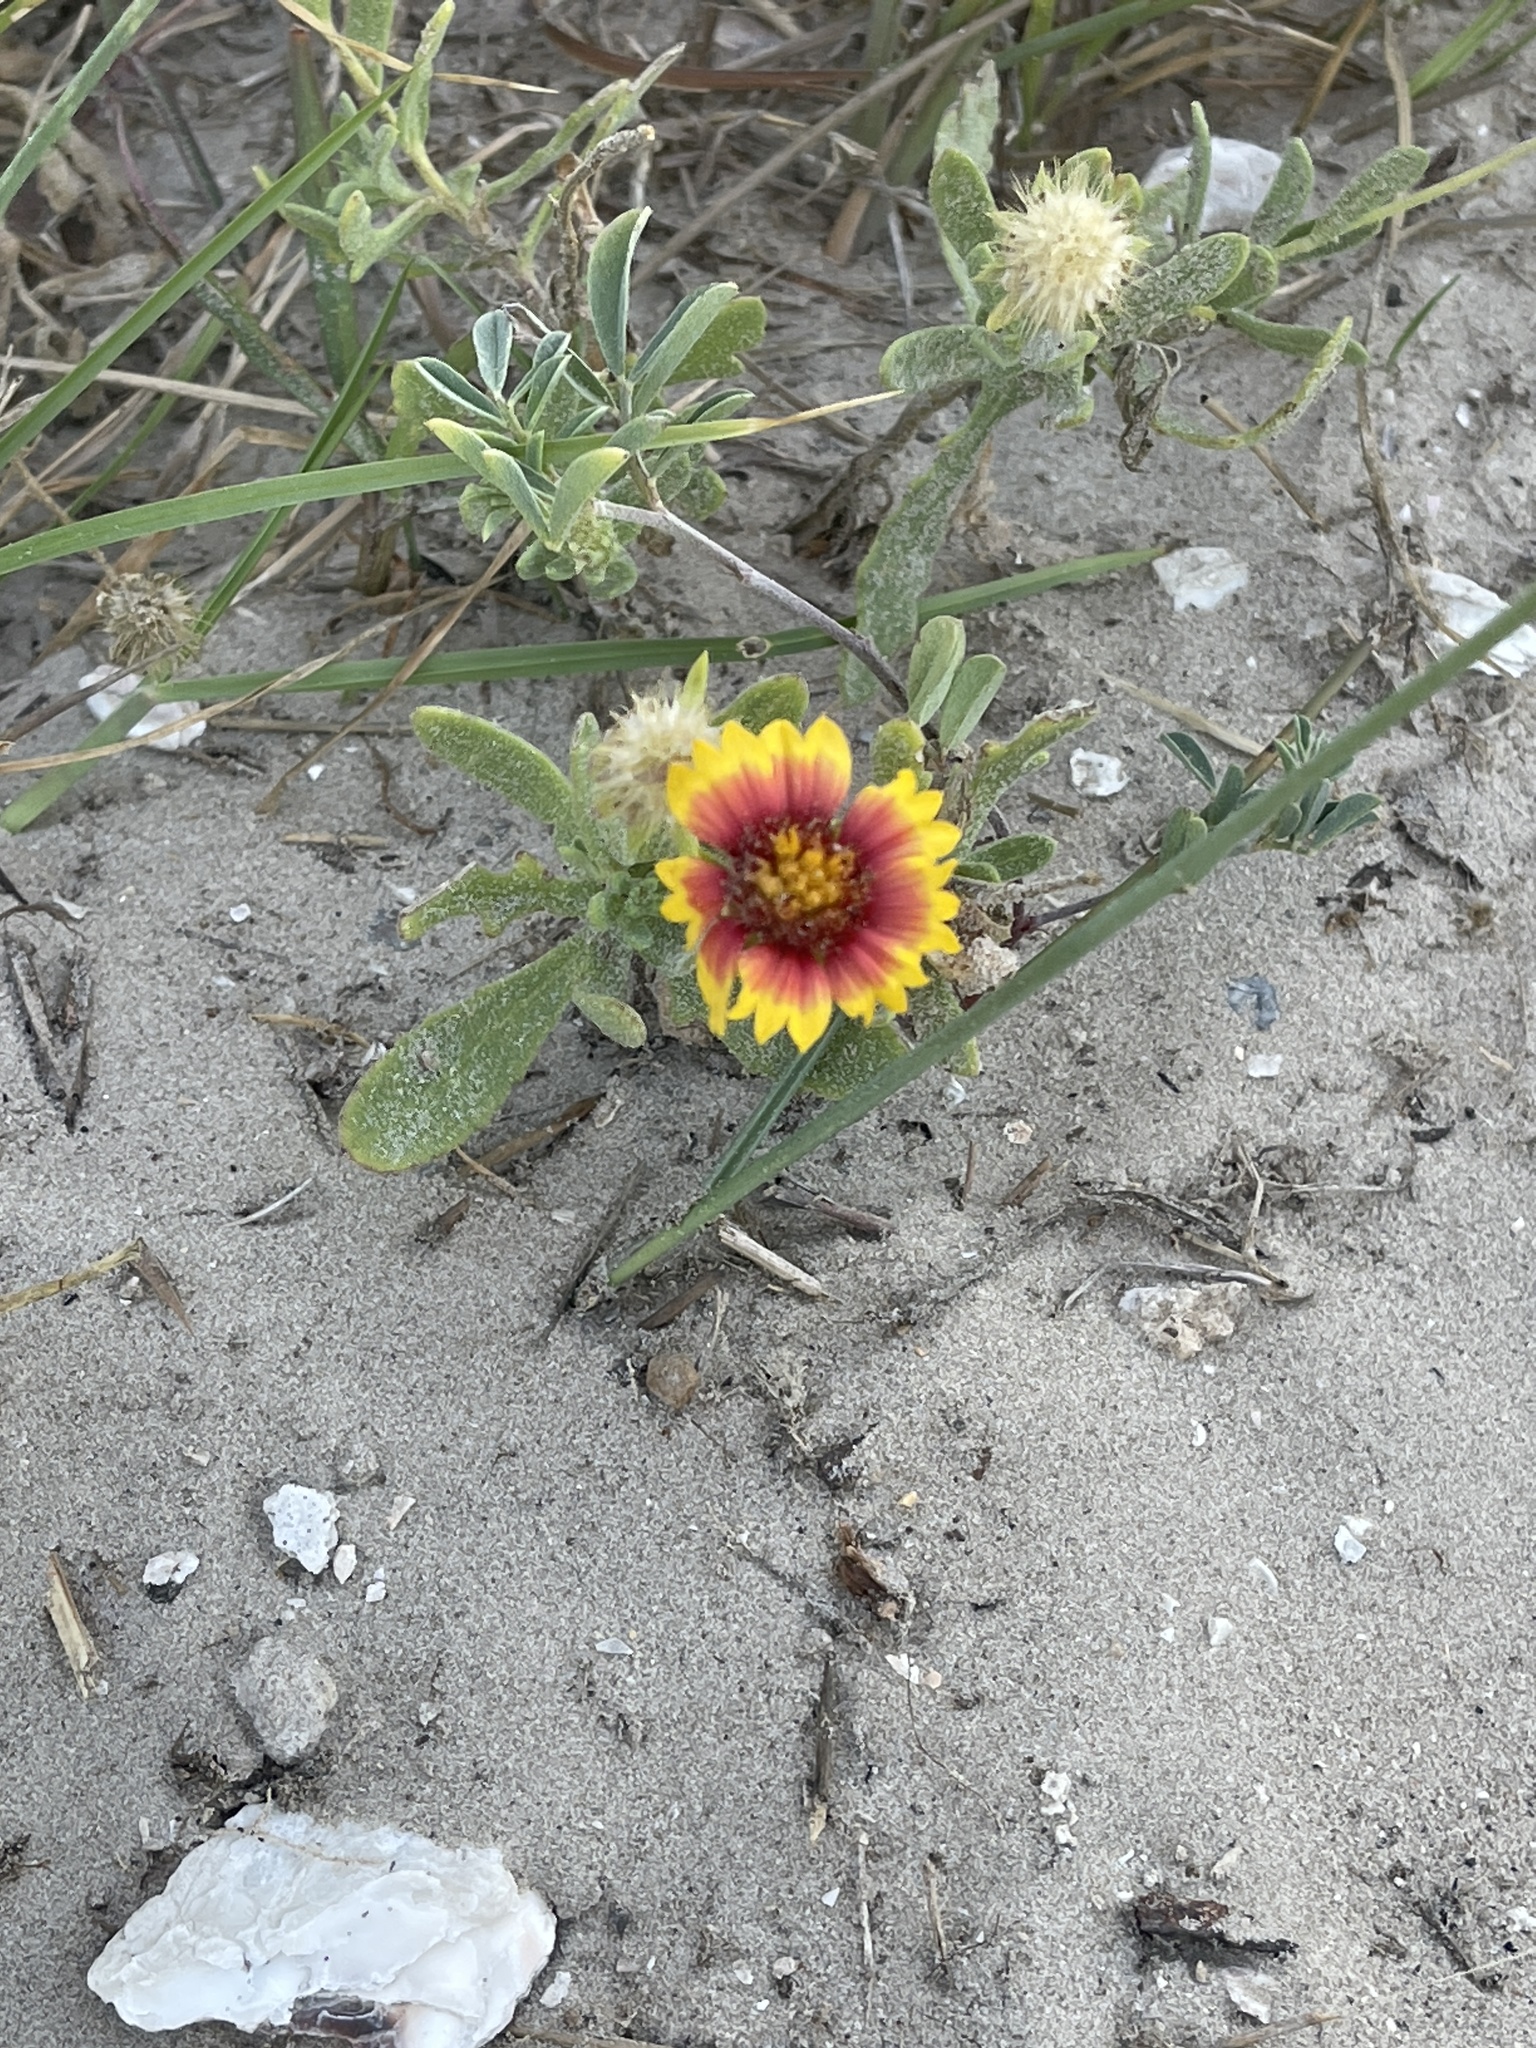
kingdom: Plantae
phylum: Tracheophyta
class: Magnoliopsida
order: Asterales
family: Asteraceae
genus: Gaillardia
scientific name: Gaillardia pulchella
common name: Firewheel
